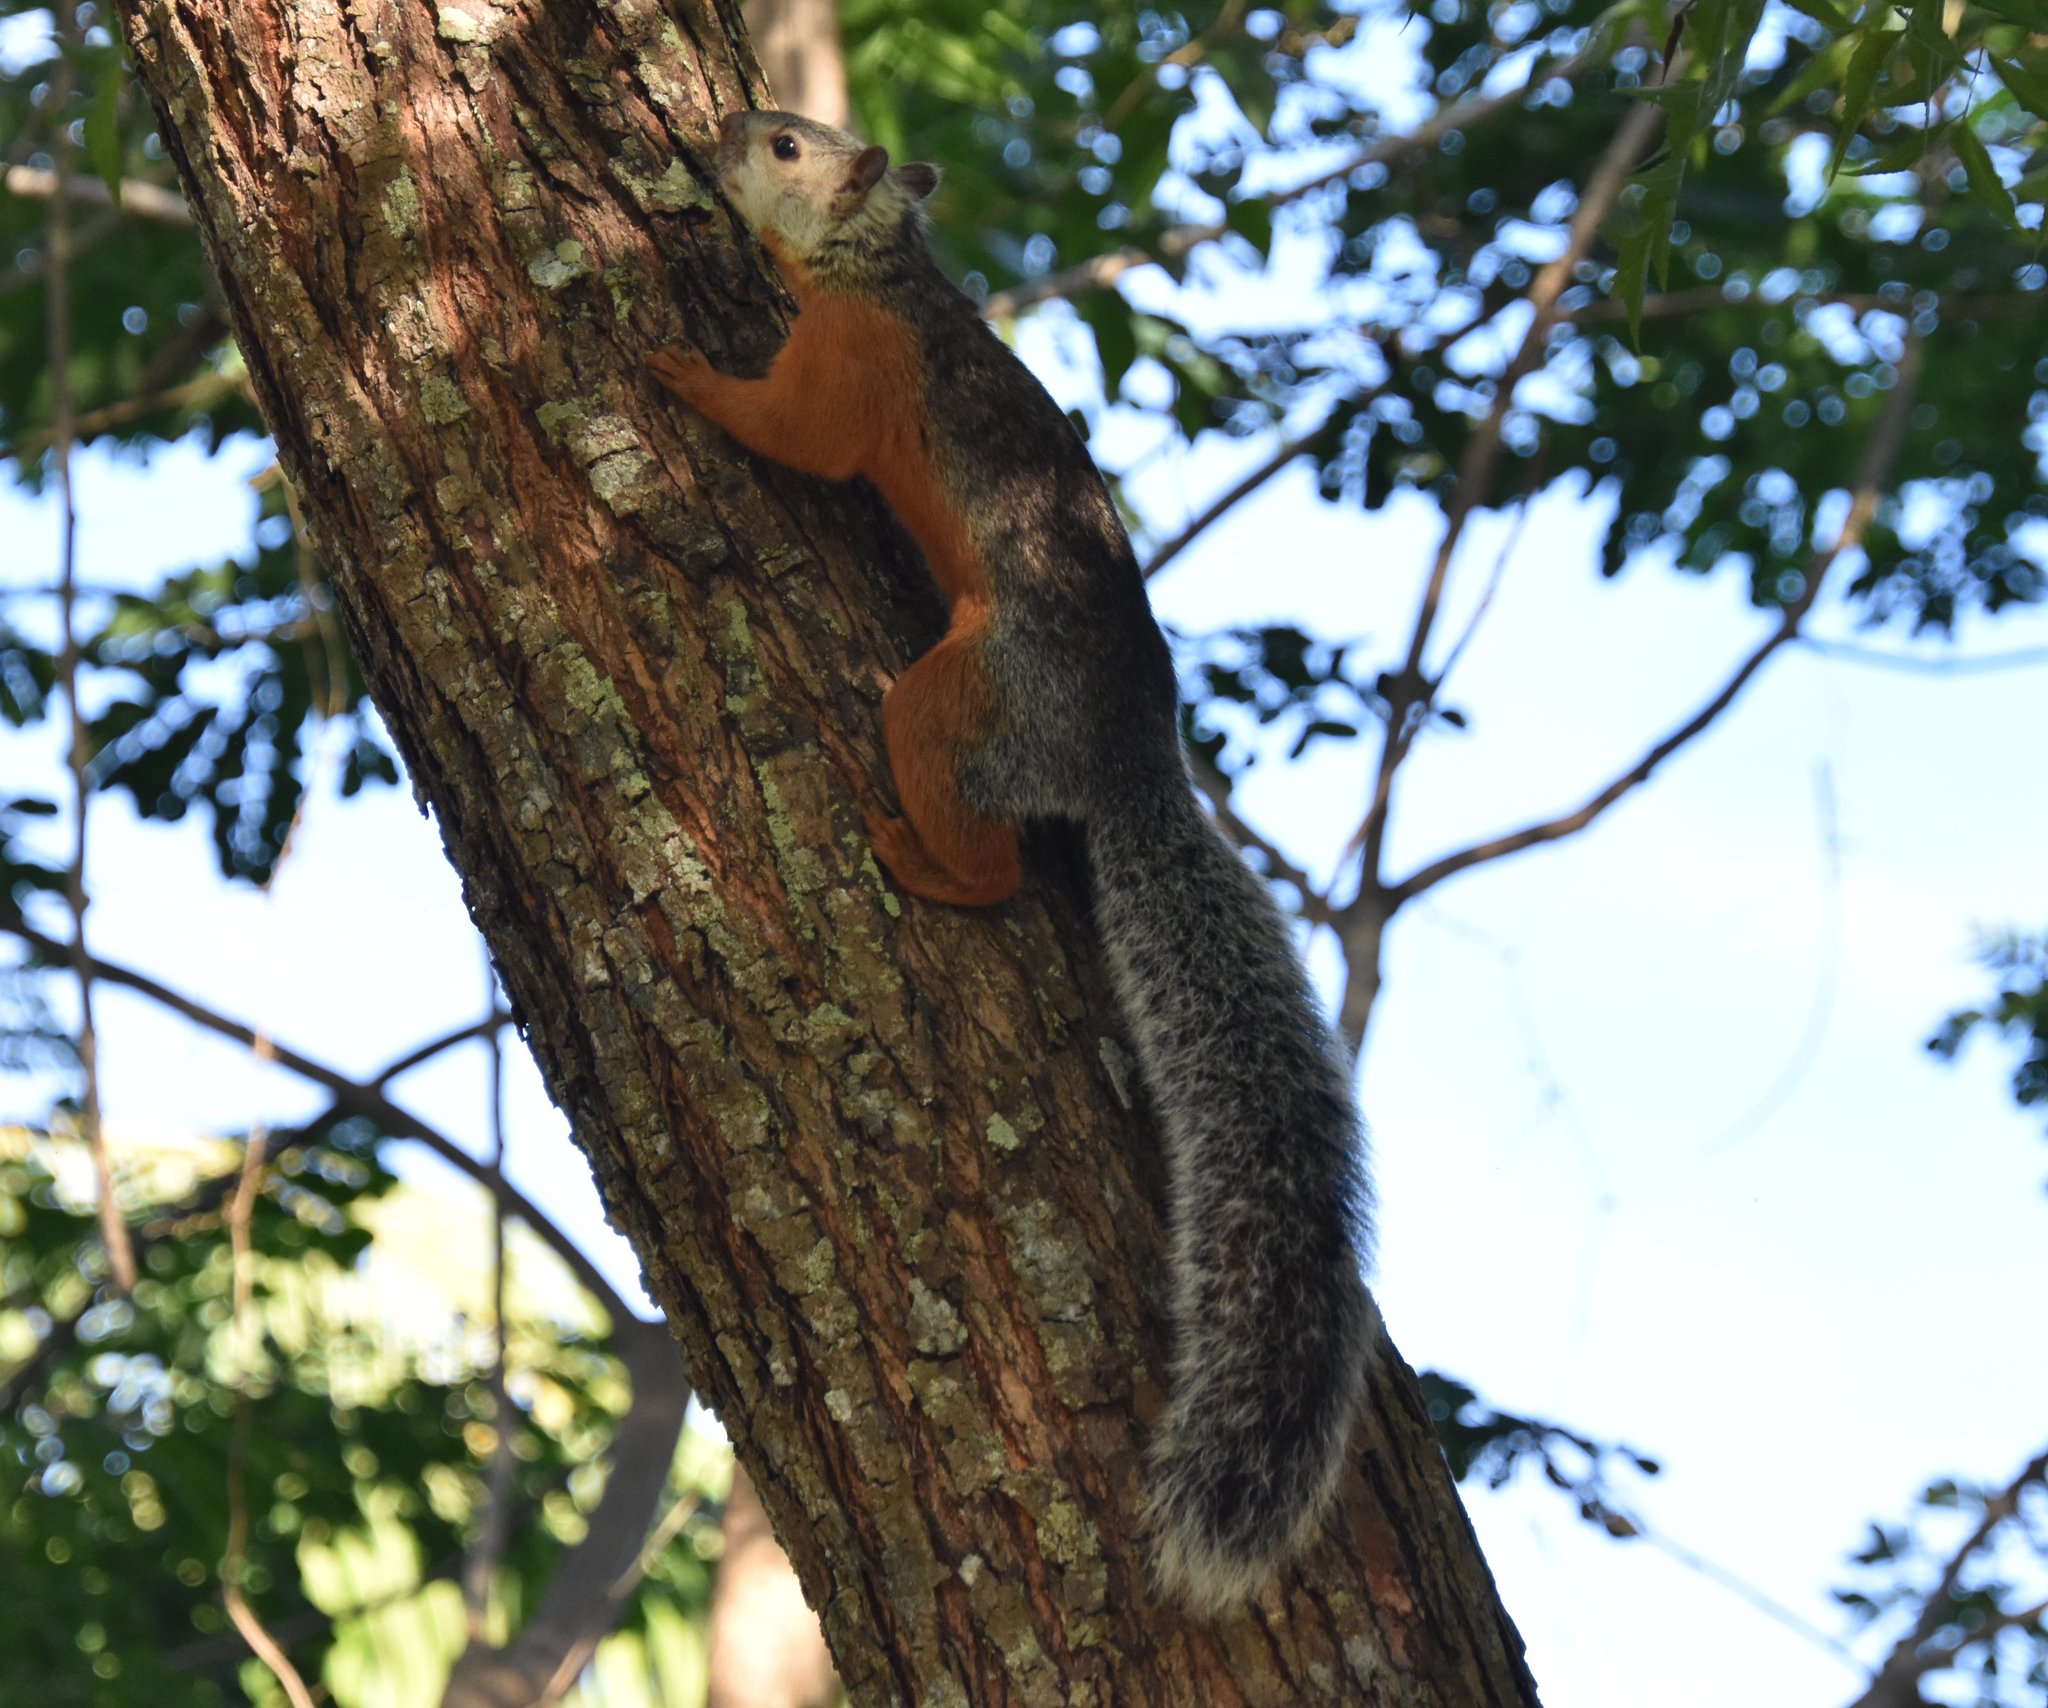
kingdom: Animalia
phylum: Chordata
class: Mammalia
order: Rodentia
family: Sciuridae
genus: Sciurus
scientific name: Sciurus variegatoides
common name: Variegated squirrel
